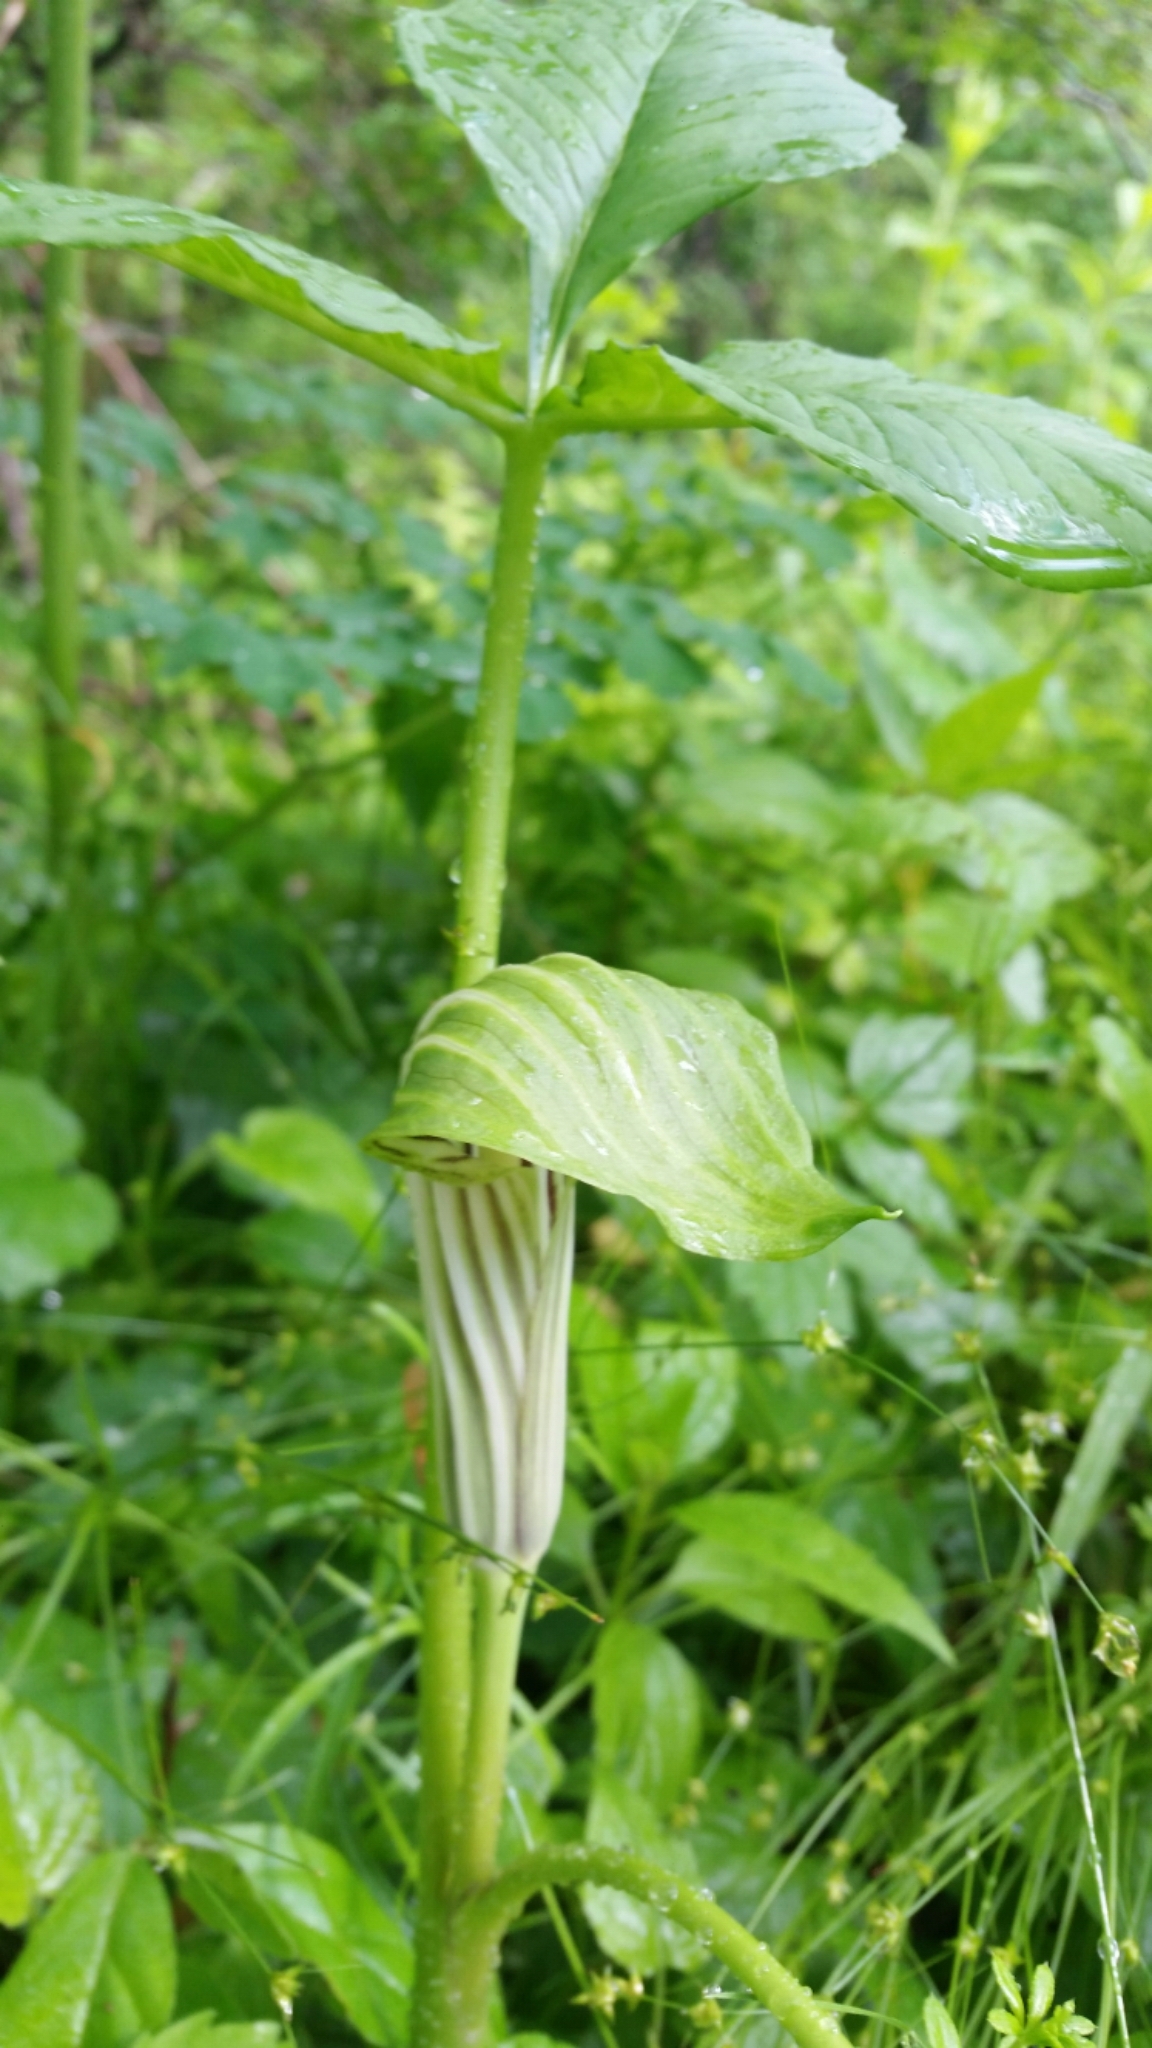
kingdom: Plantae
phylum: Tracheophyta
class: Liliopsida
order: Alismatales
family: Araceae
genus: Arisaema
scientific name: Arisaema stewardsonii
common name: Swamp jack-in-the-pulpit
